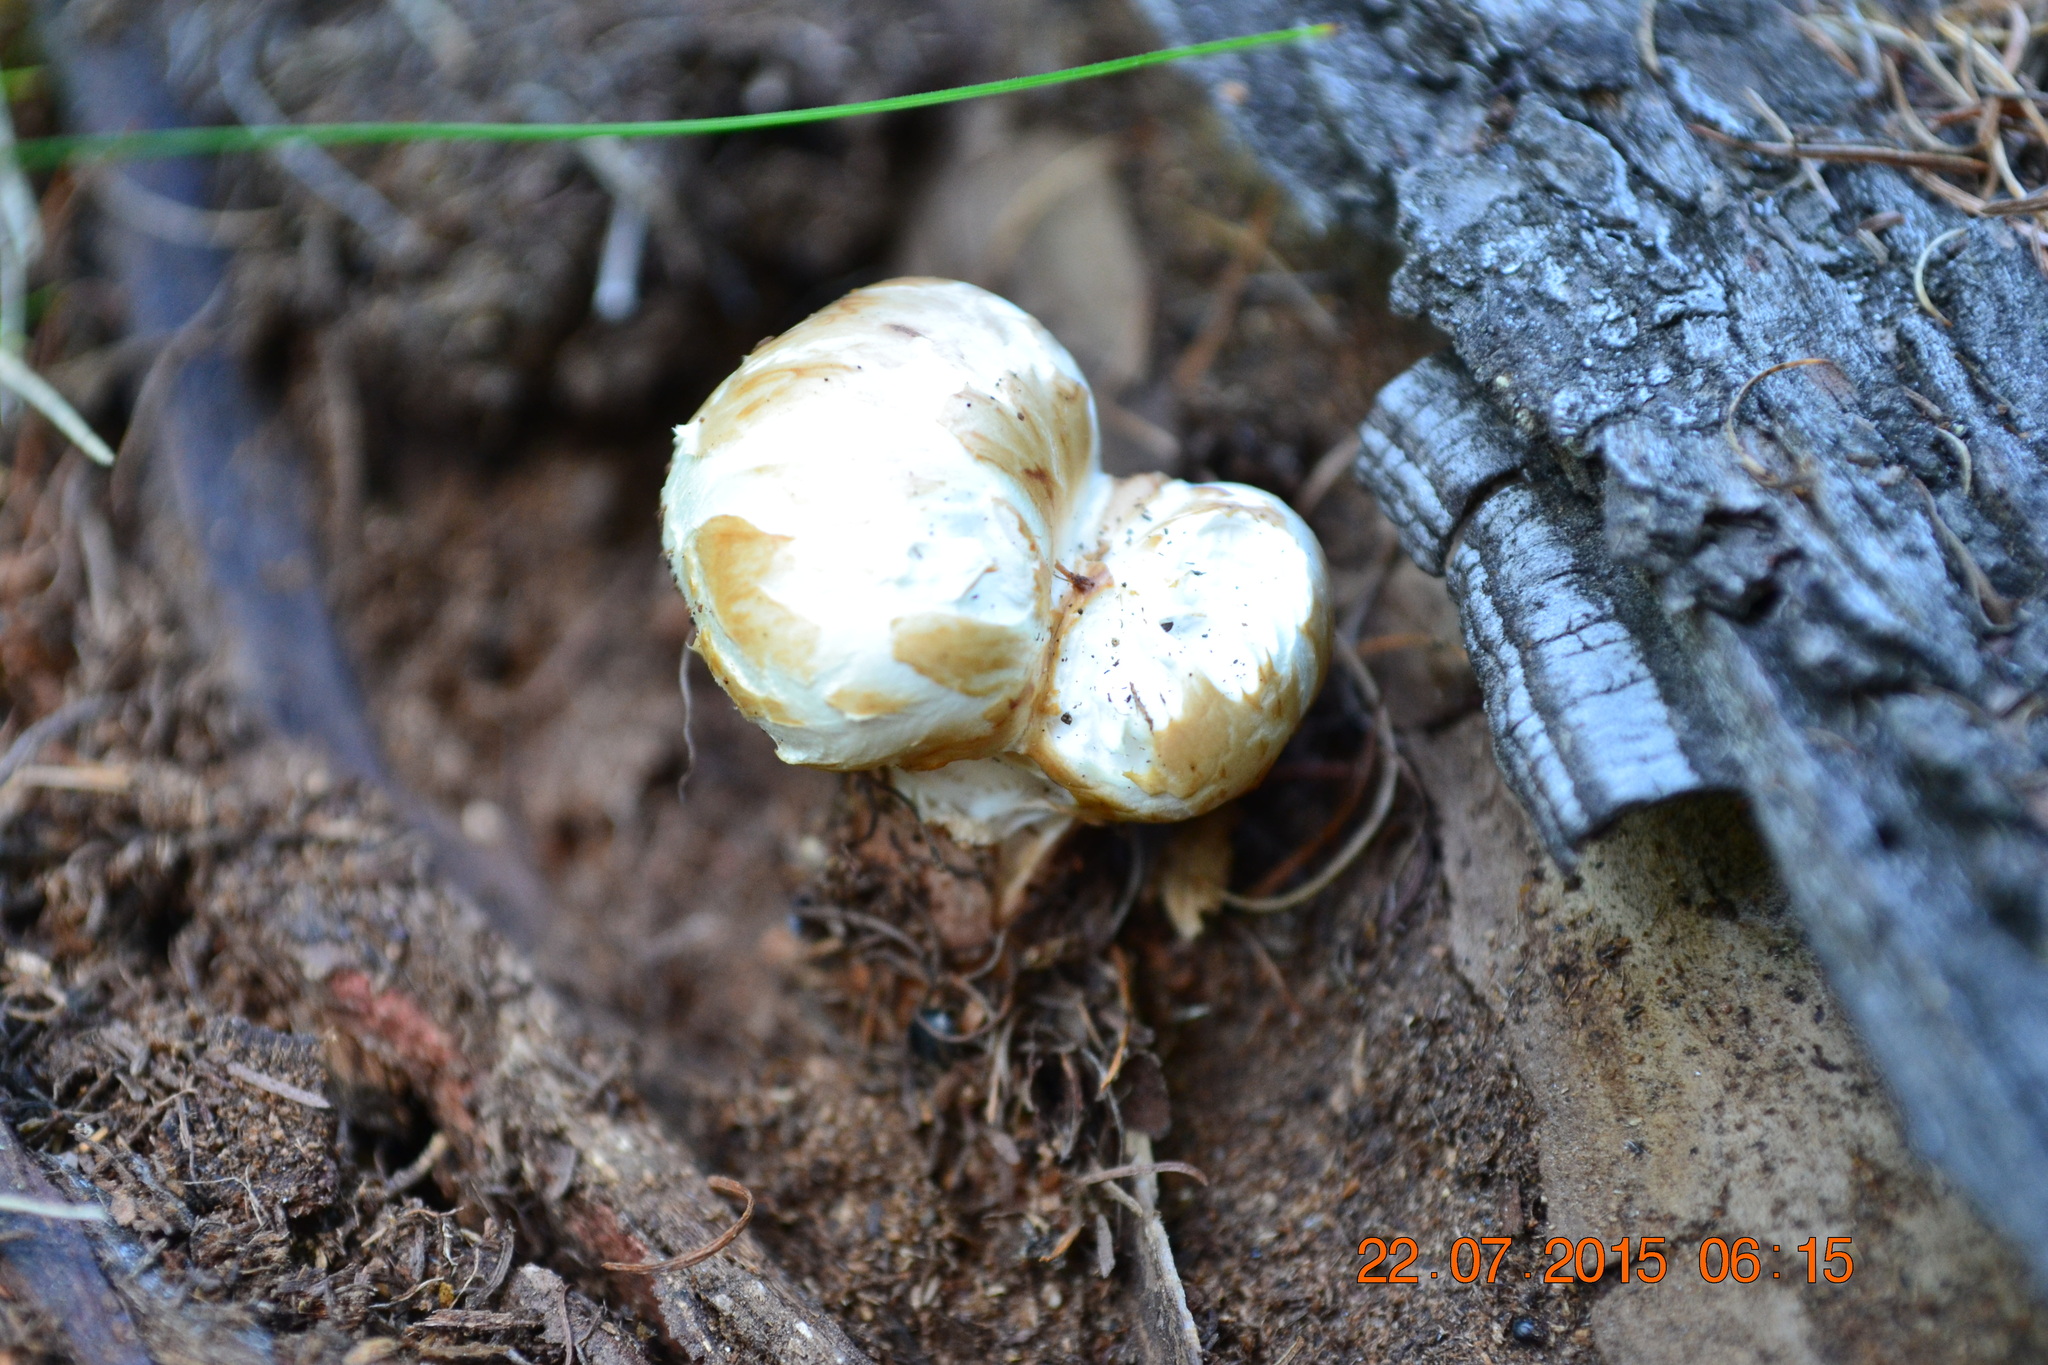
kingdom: Fungi
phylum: Basidiomycota
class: Agaricomycetes
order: Gloeophyllales
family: Gloeophyllaceae
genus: Neolentinus
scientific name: Neolentinus lepideus
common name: Scaly sawgill
